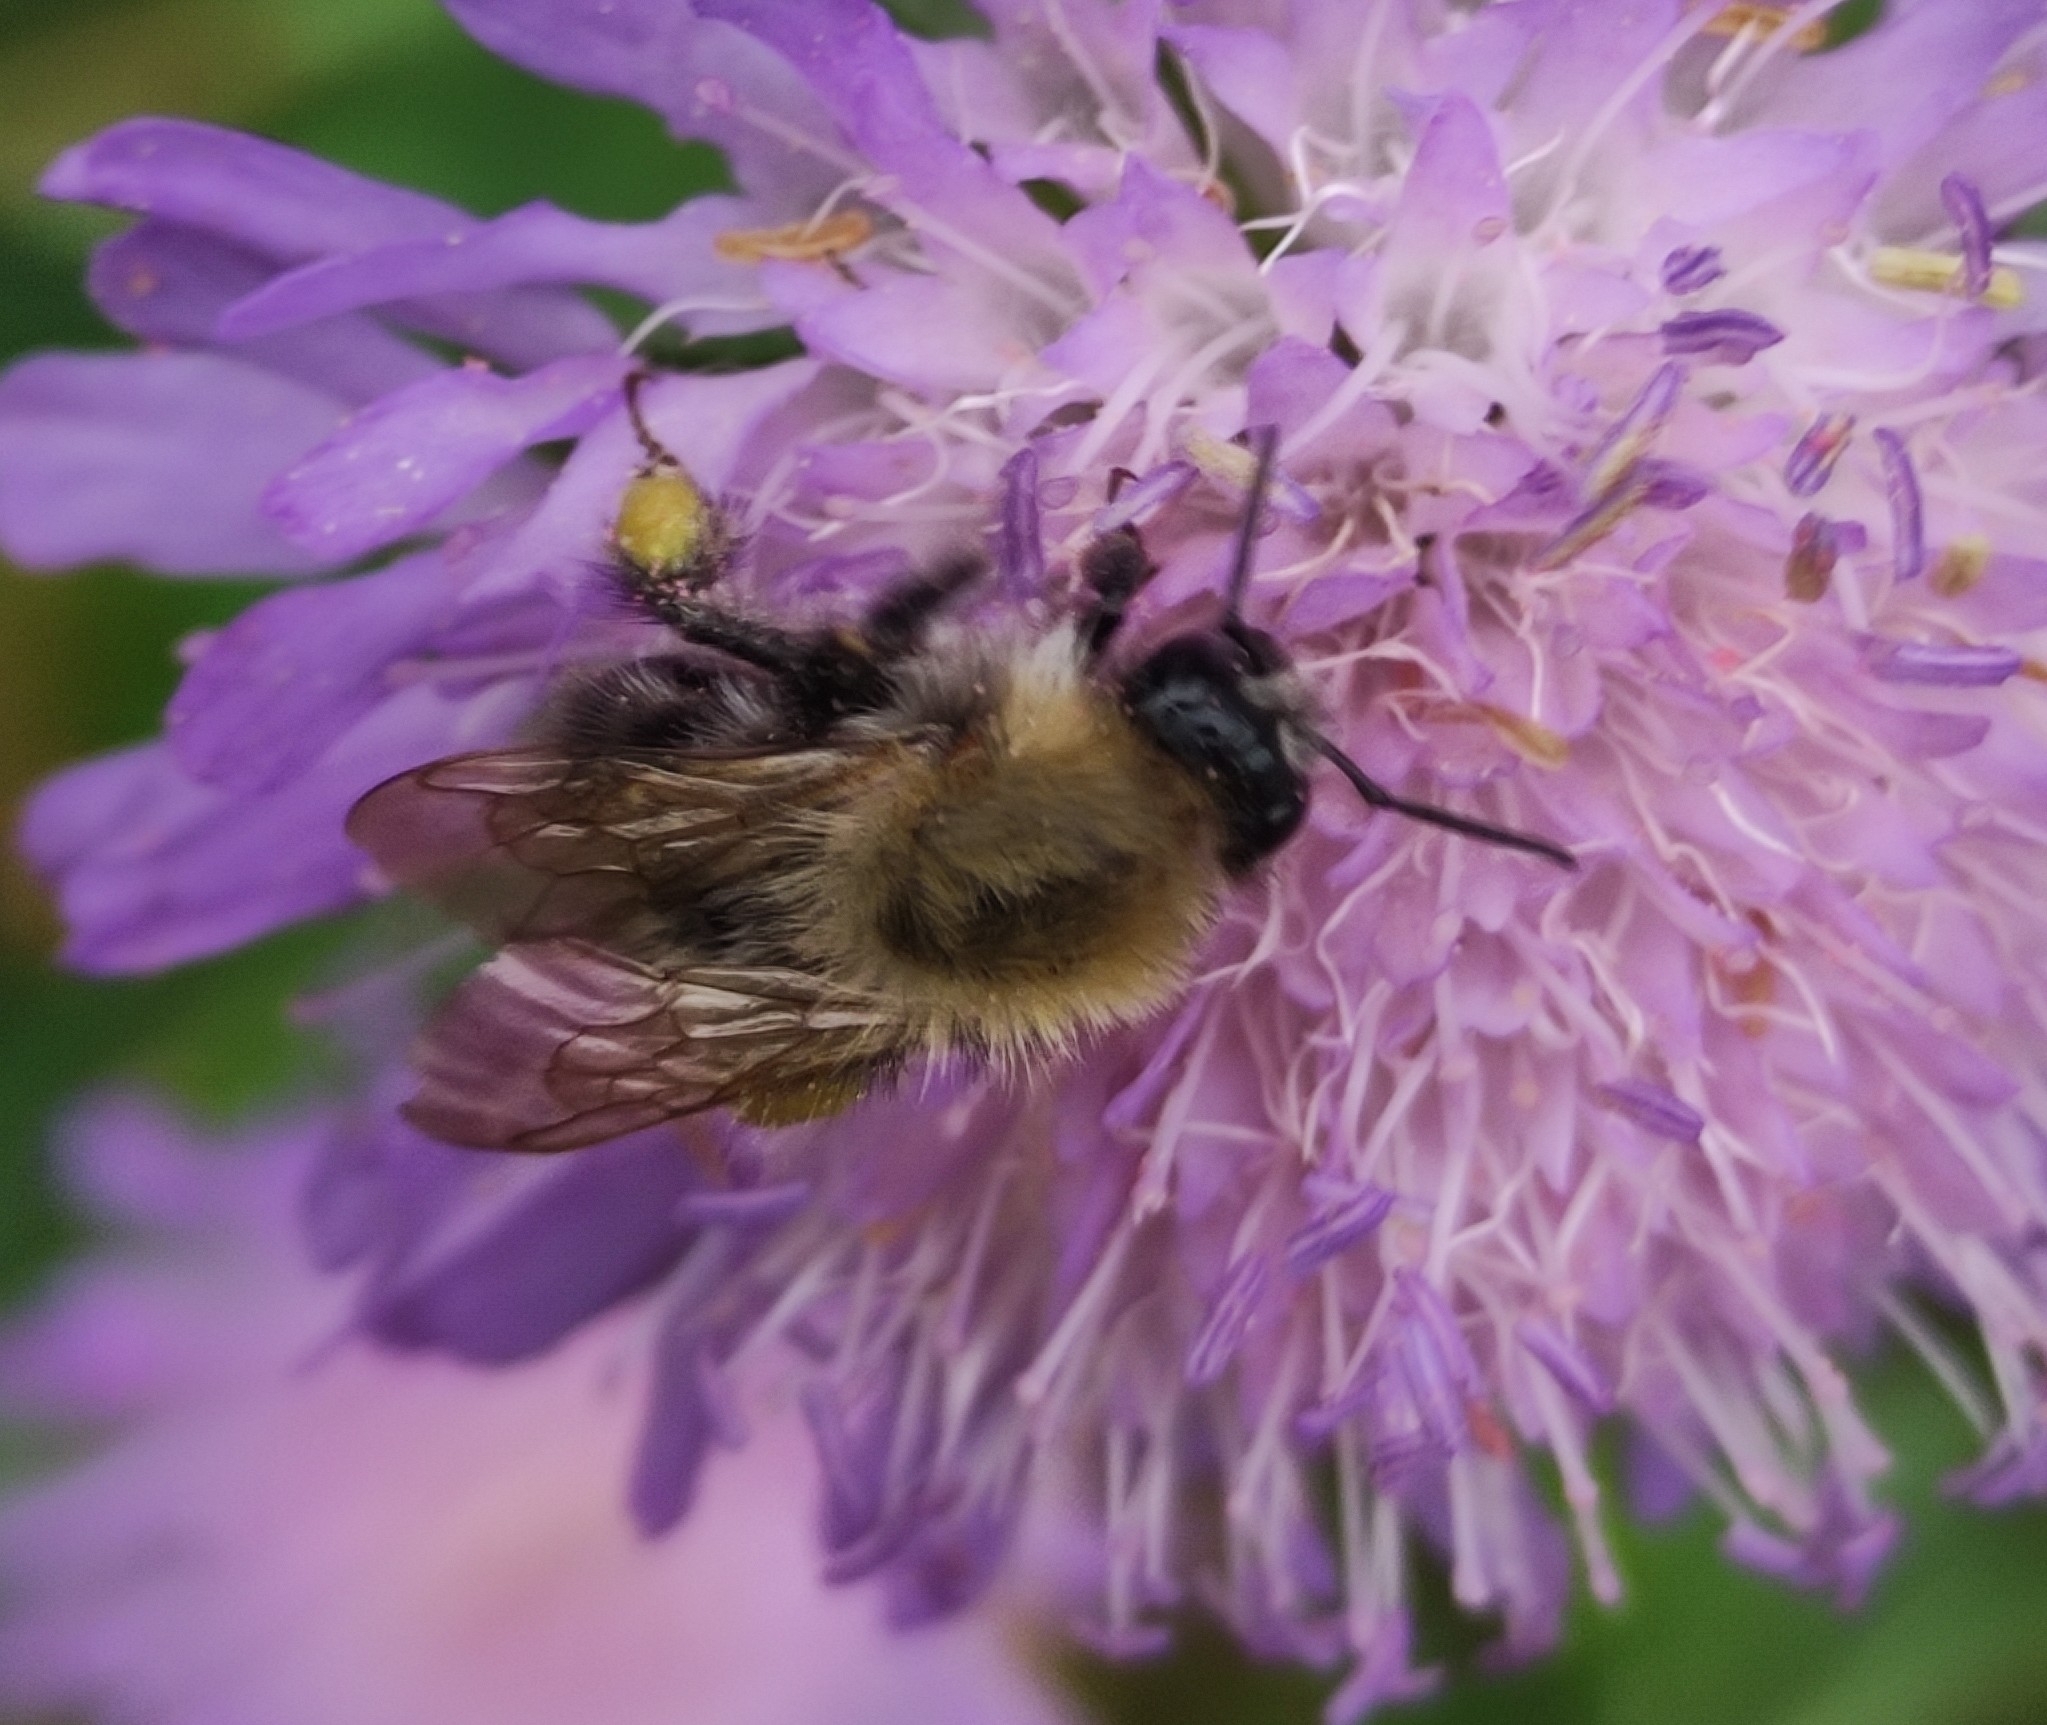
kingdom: Animalia
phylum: Arthropoda
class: Insecta
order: Hymenoptera
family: Apidae
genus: Bombus
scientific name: Bombus pascuorum
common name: Common carder bee
